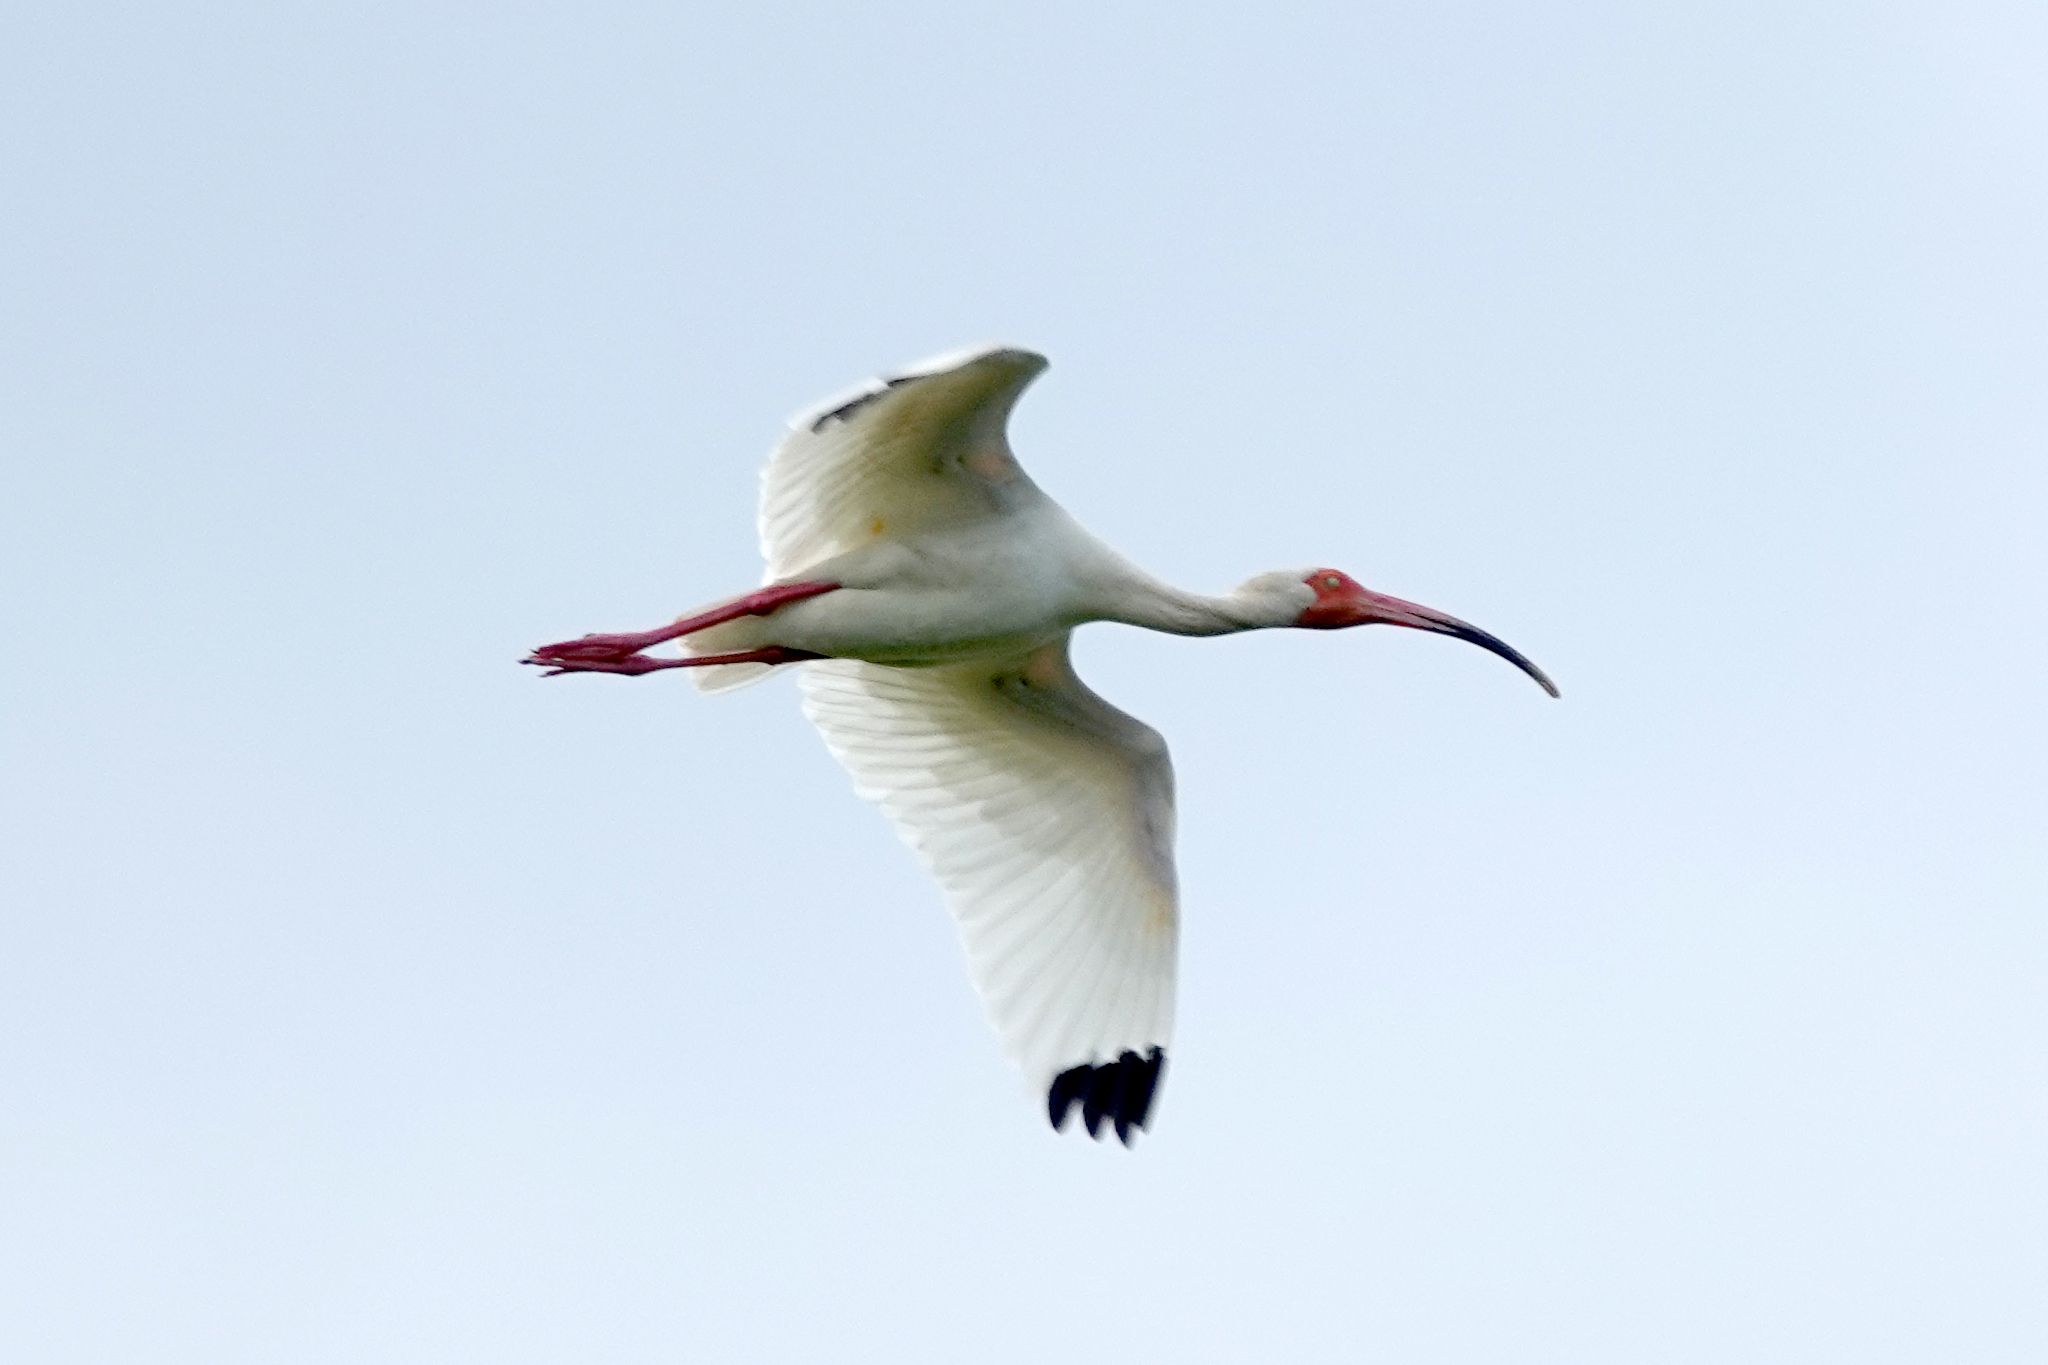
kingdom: Animalia
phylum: Chordata
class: Aves
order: Pelecaniformes
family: Threskiornithidae
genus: Eudocimus
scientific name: Eudocimus albus
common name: White ibis
